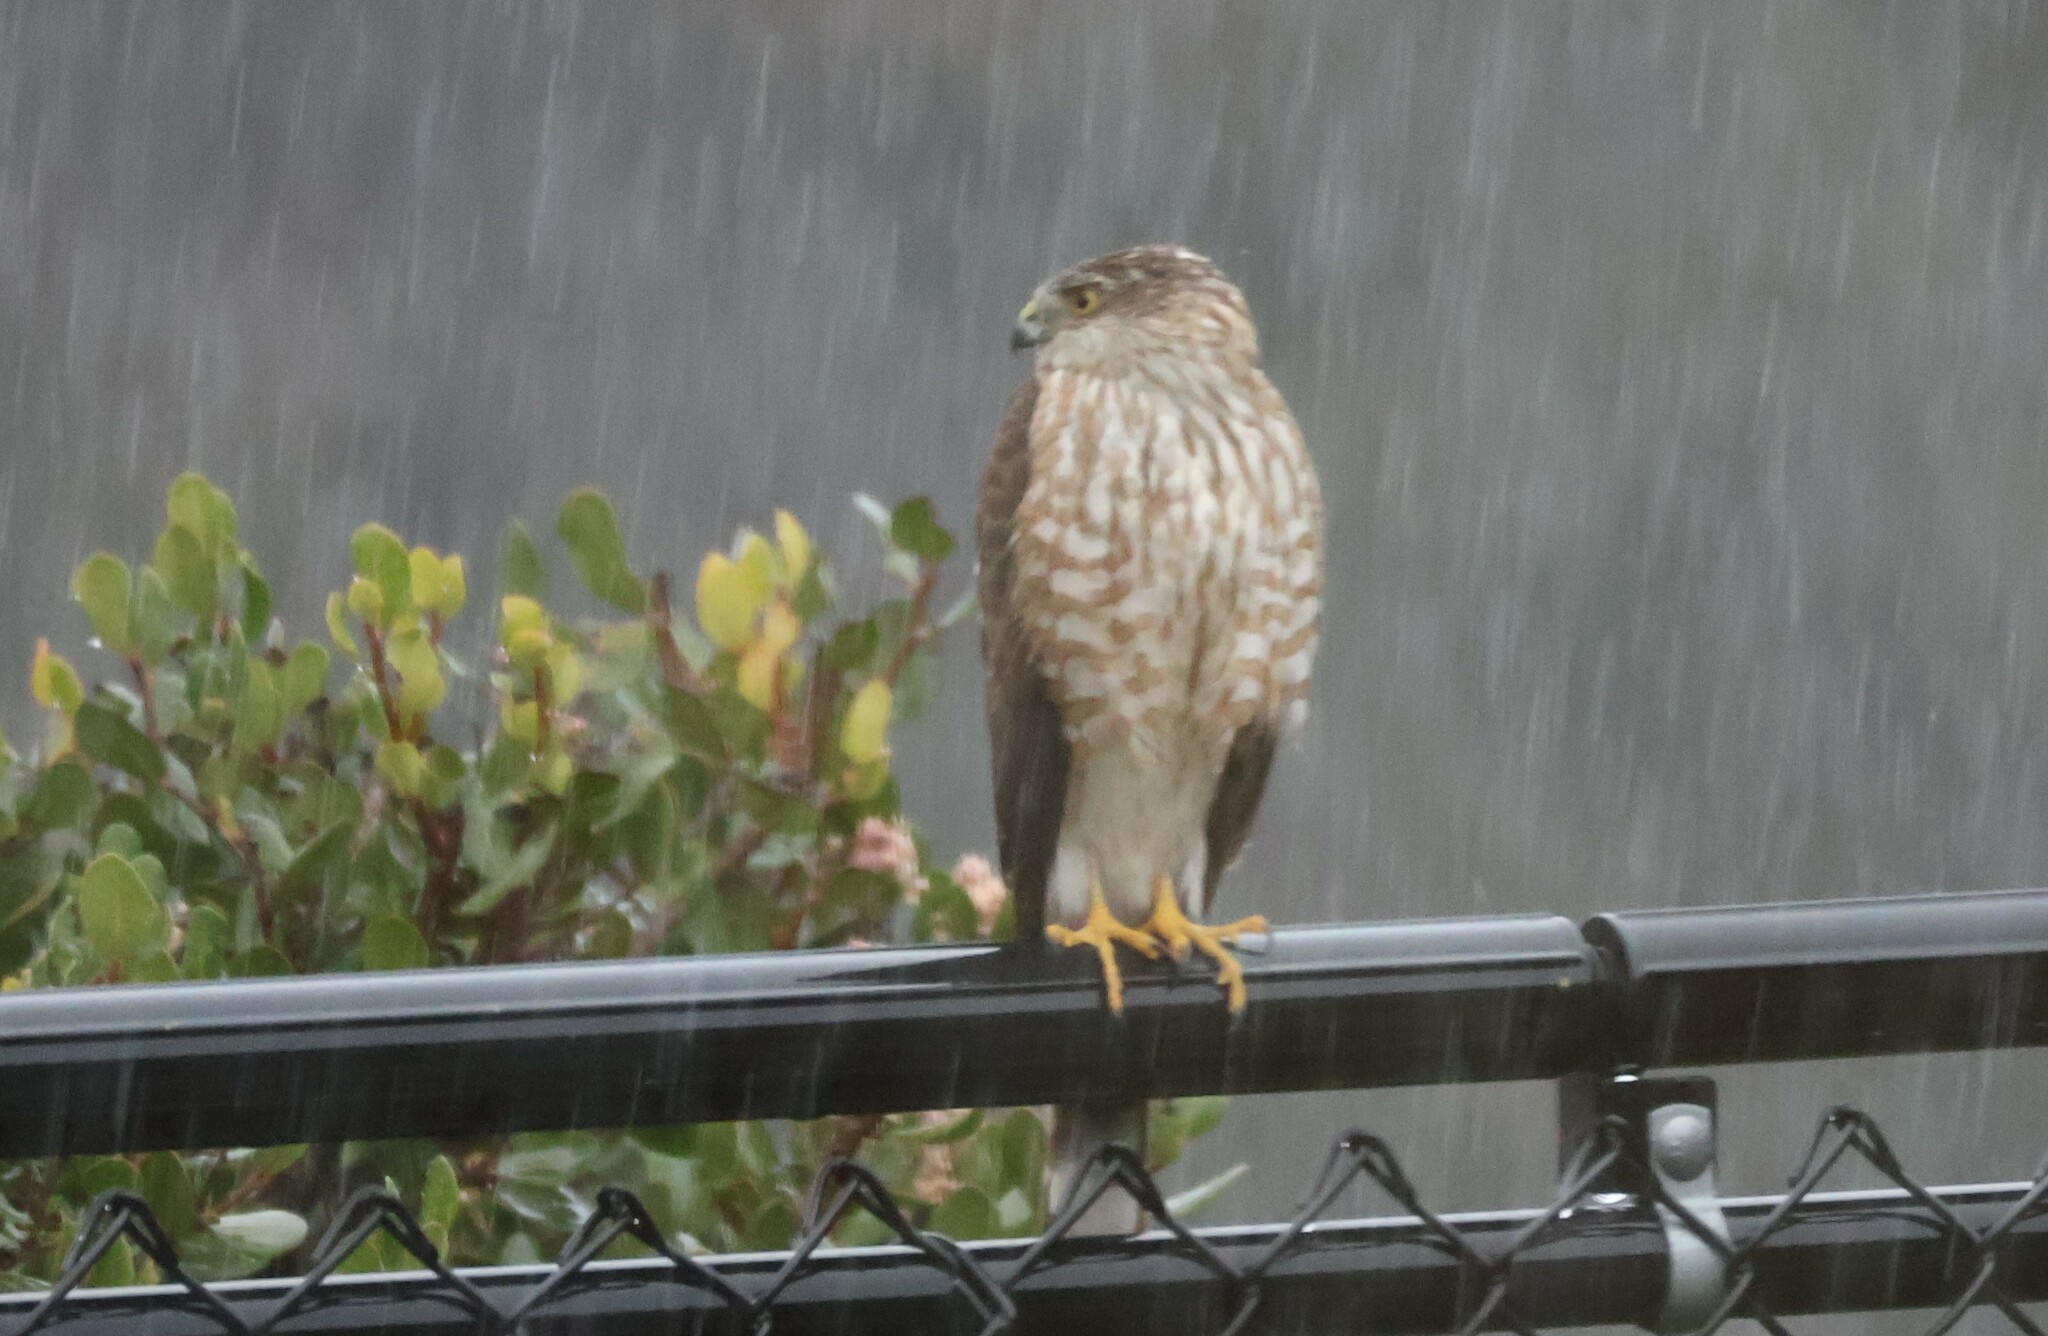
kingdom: Animalia
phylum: Chordata
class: Aves
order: Accipitriformes
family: Accipitridae
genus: Accipiter
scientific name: Accipiter striatus
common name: Sharp-shinned hawk
